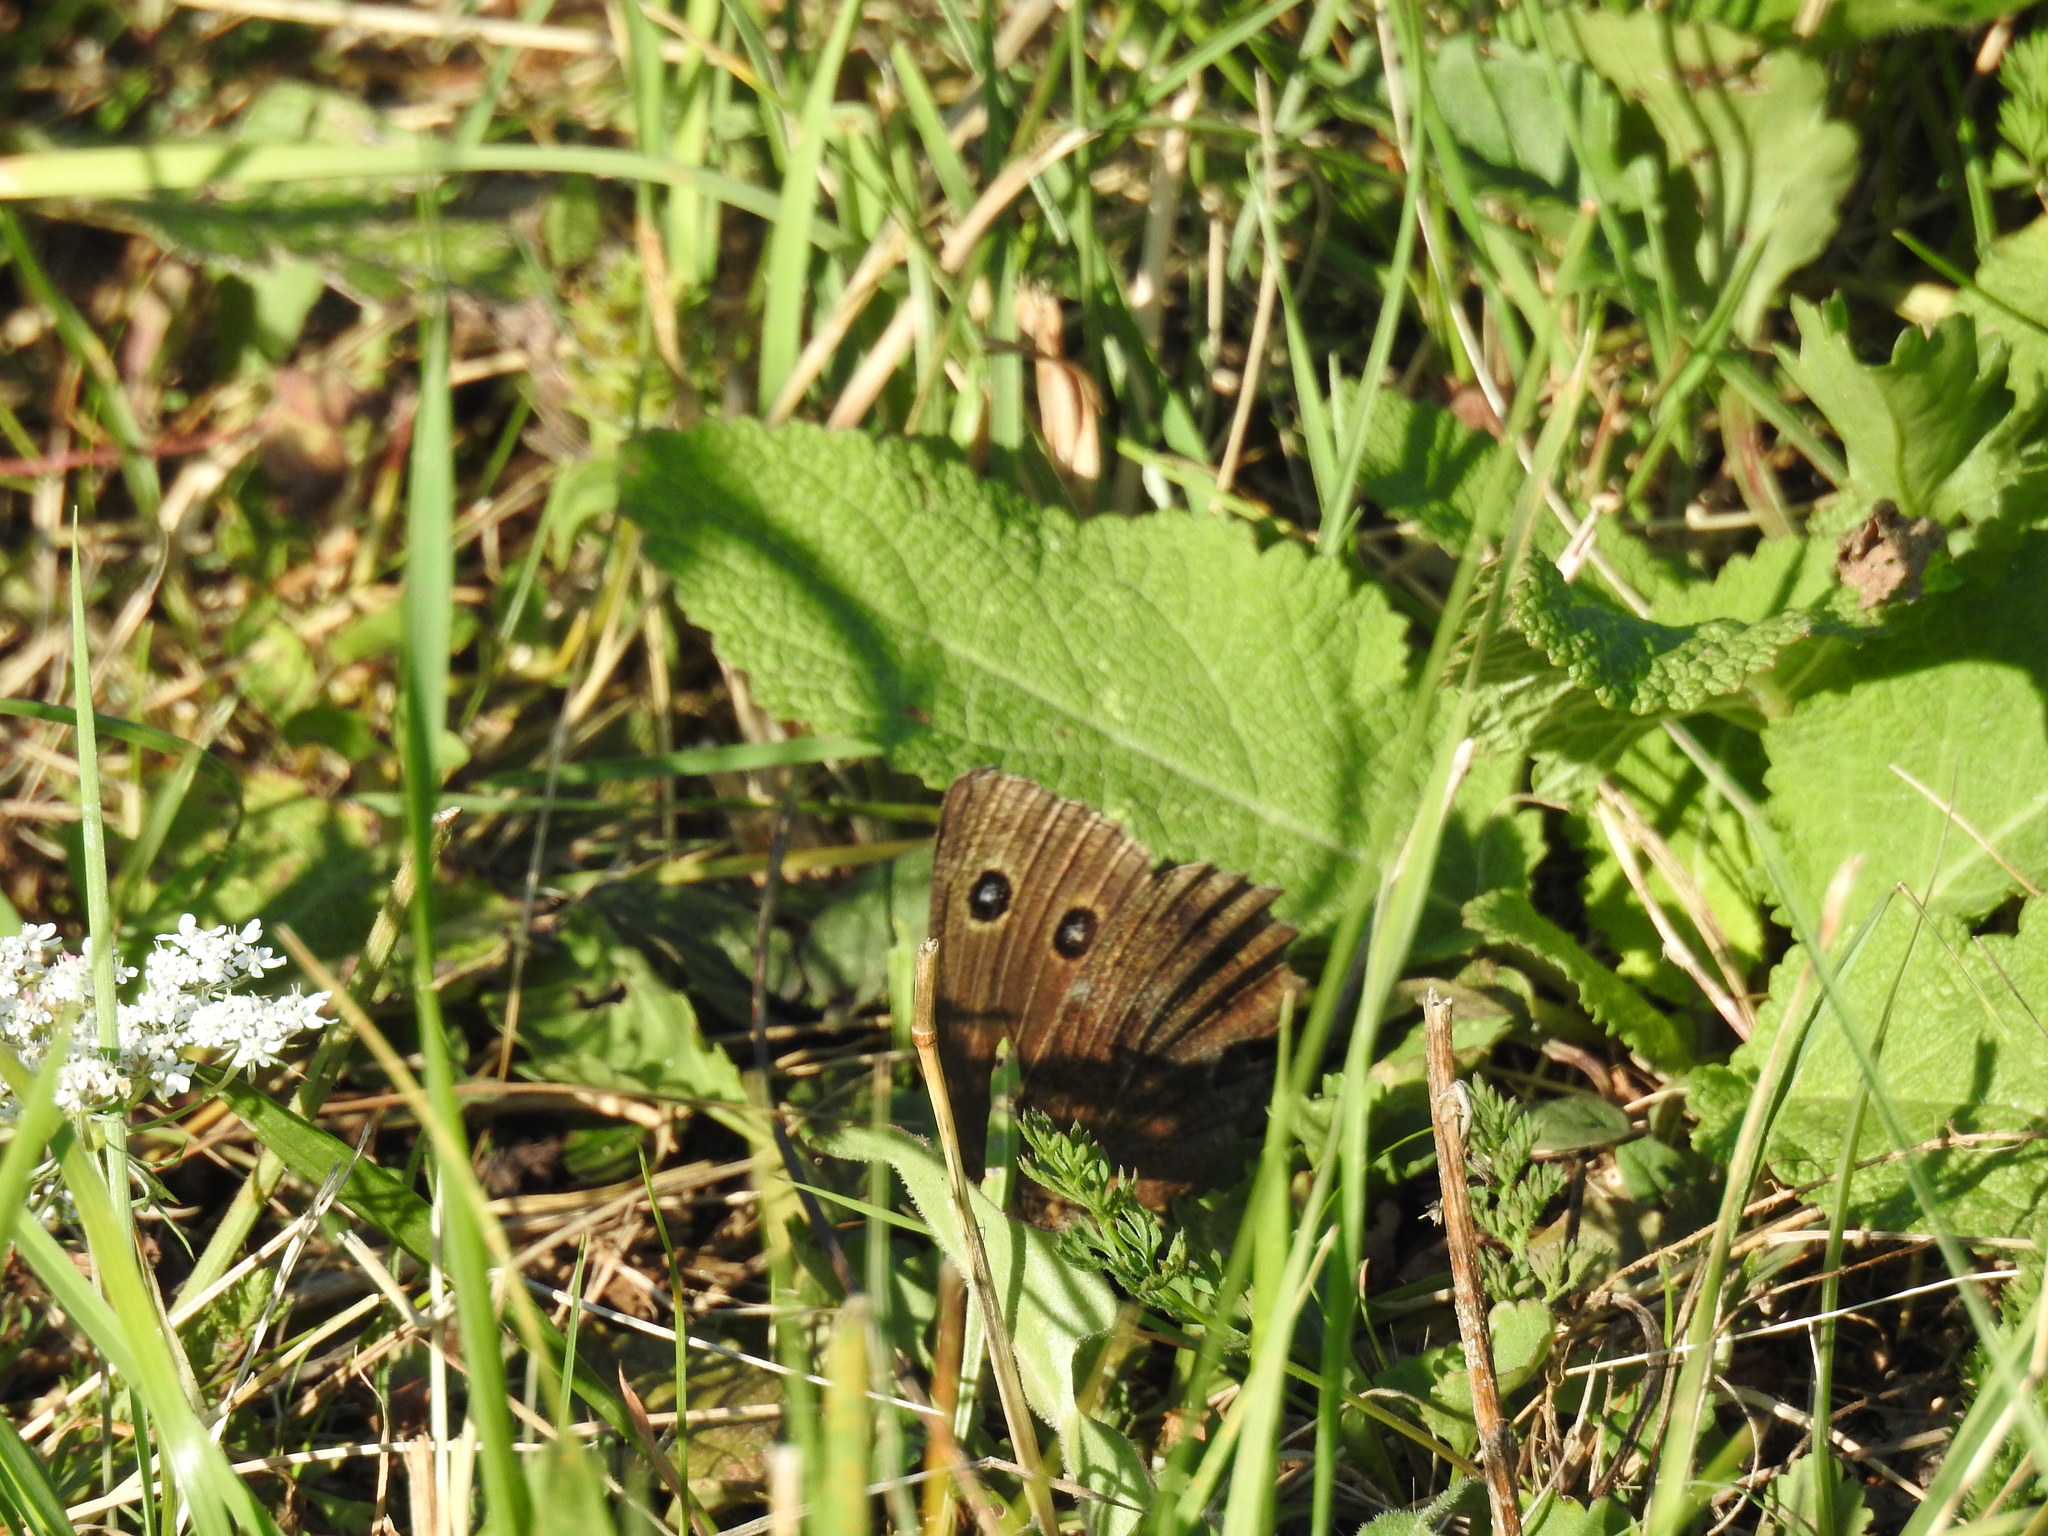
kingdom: Animalia
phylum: Arthropoda
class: Insecta
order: Lepidoptera
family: Nymphalidae
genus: Minois
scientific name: Minois dryas
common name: Dryad
